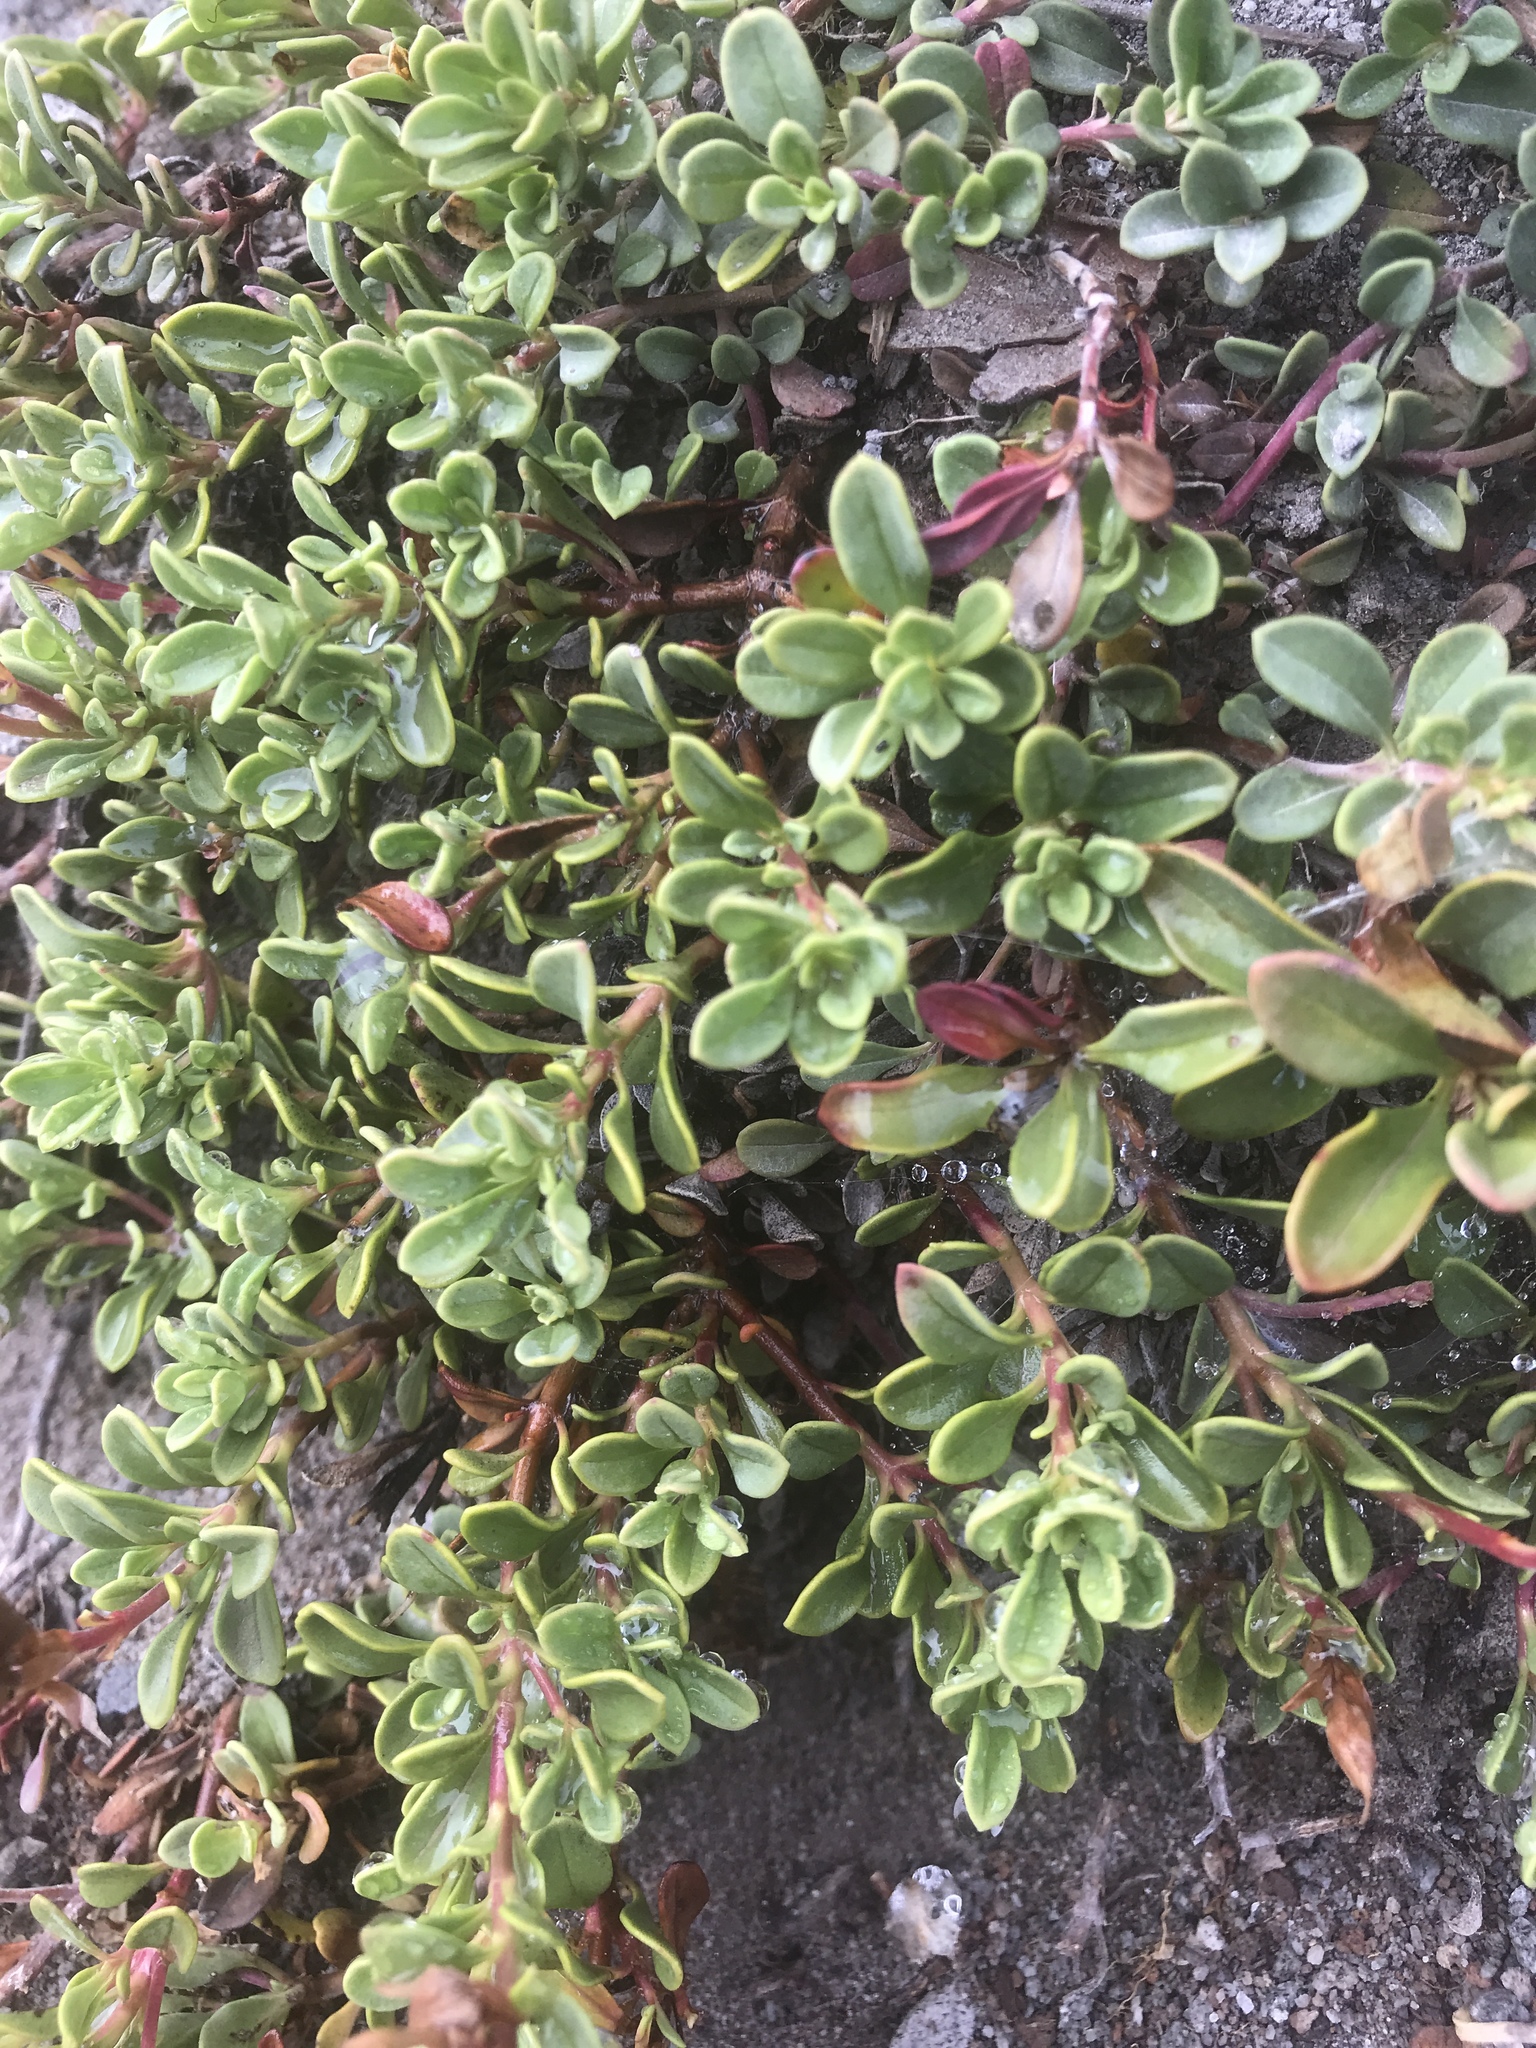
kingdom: Plantae
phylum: Tracheophyta
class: Magnoliopsida
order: Lamiales
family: Plantaginaceae
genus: Penstemon
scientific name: Penstemon davidsonii
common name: Davidson's penstemon
